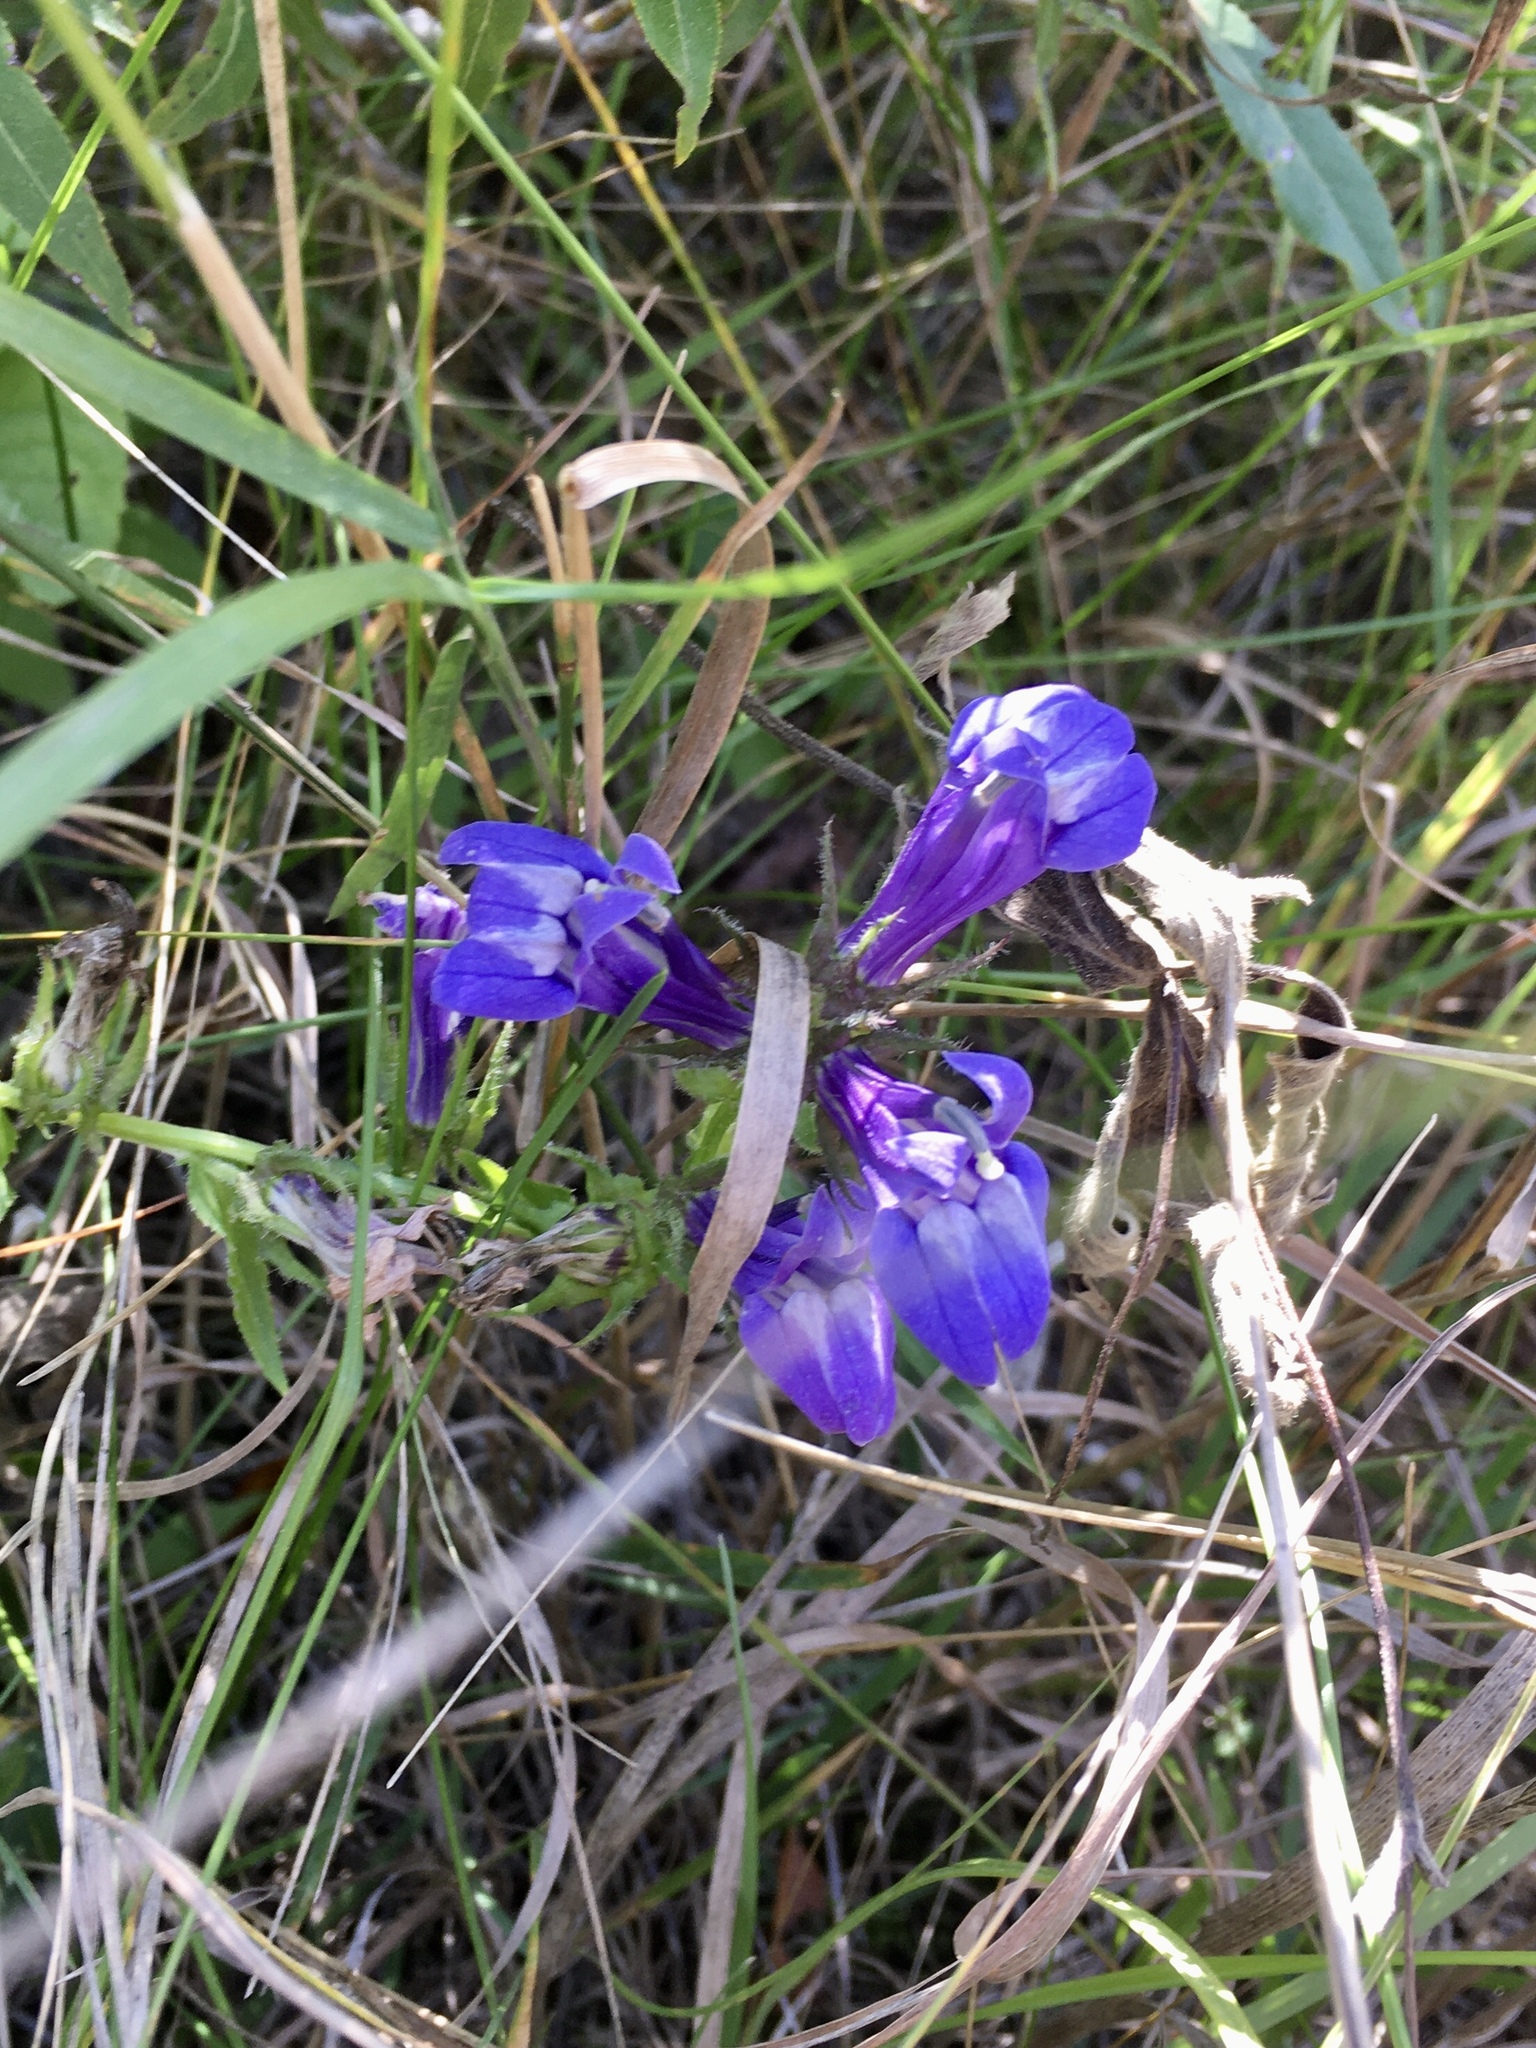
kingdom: Plantae
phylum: Tracheophyta
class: Magnoliopsida
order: Asterales
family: Campanulaceae
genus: Lobelia
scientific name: Lobelia siphilitica
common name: Great lobelia
